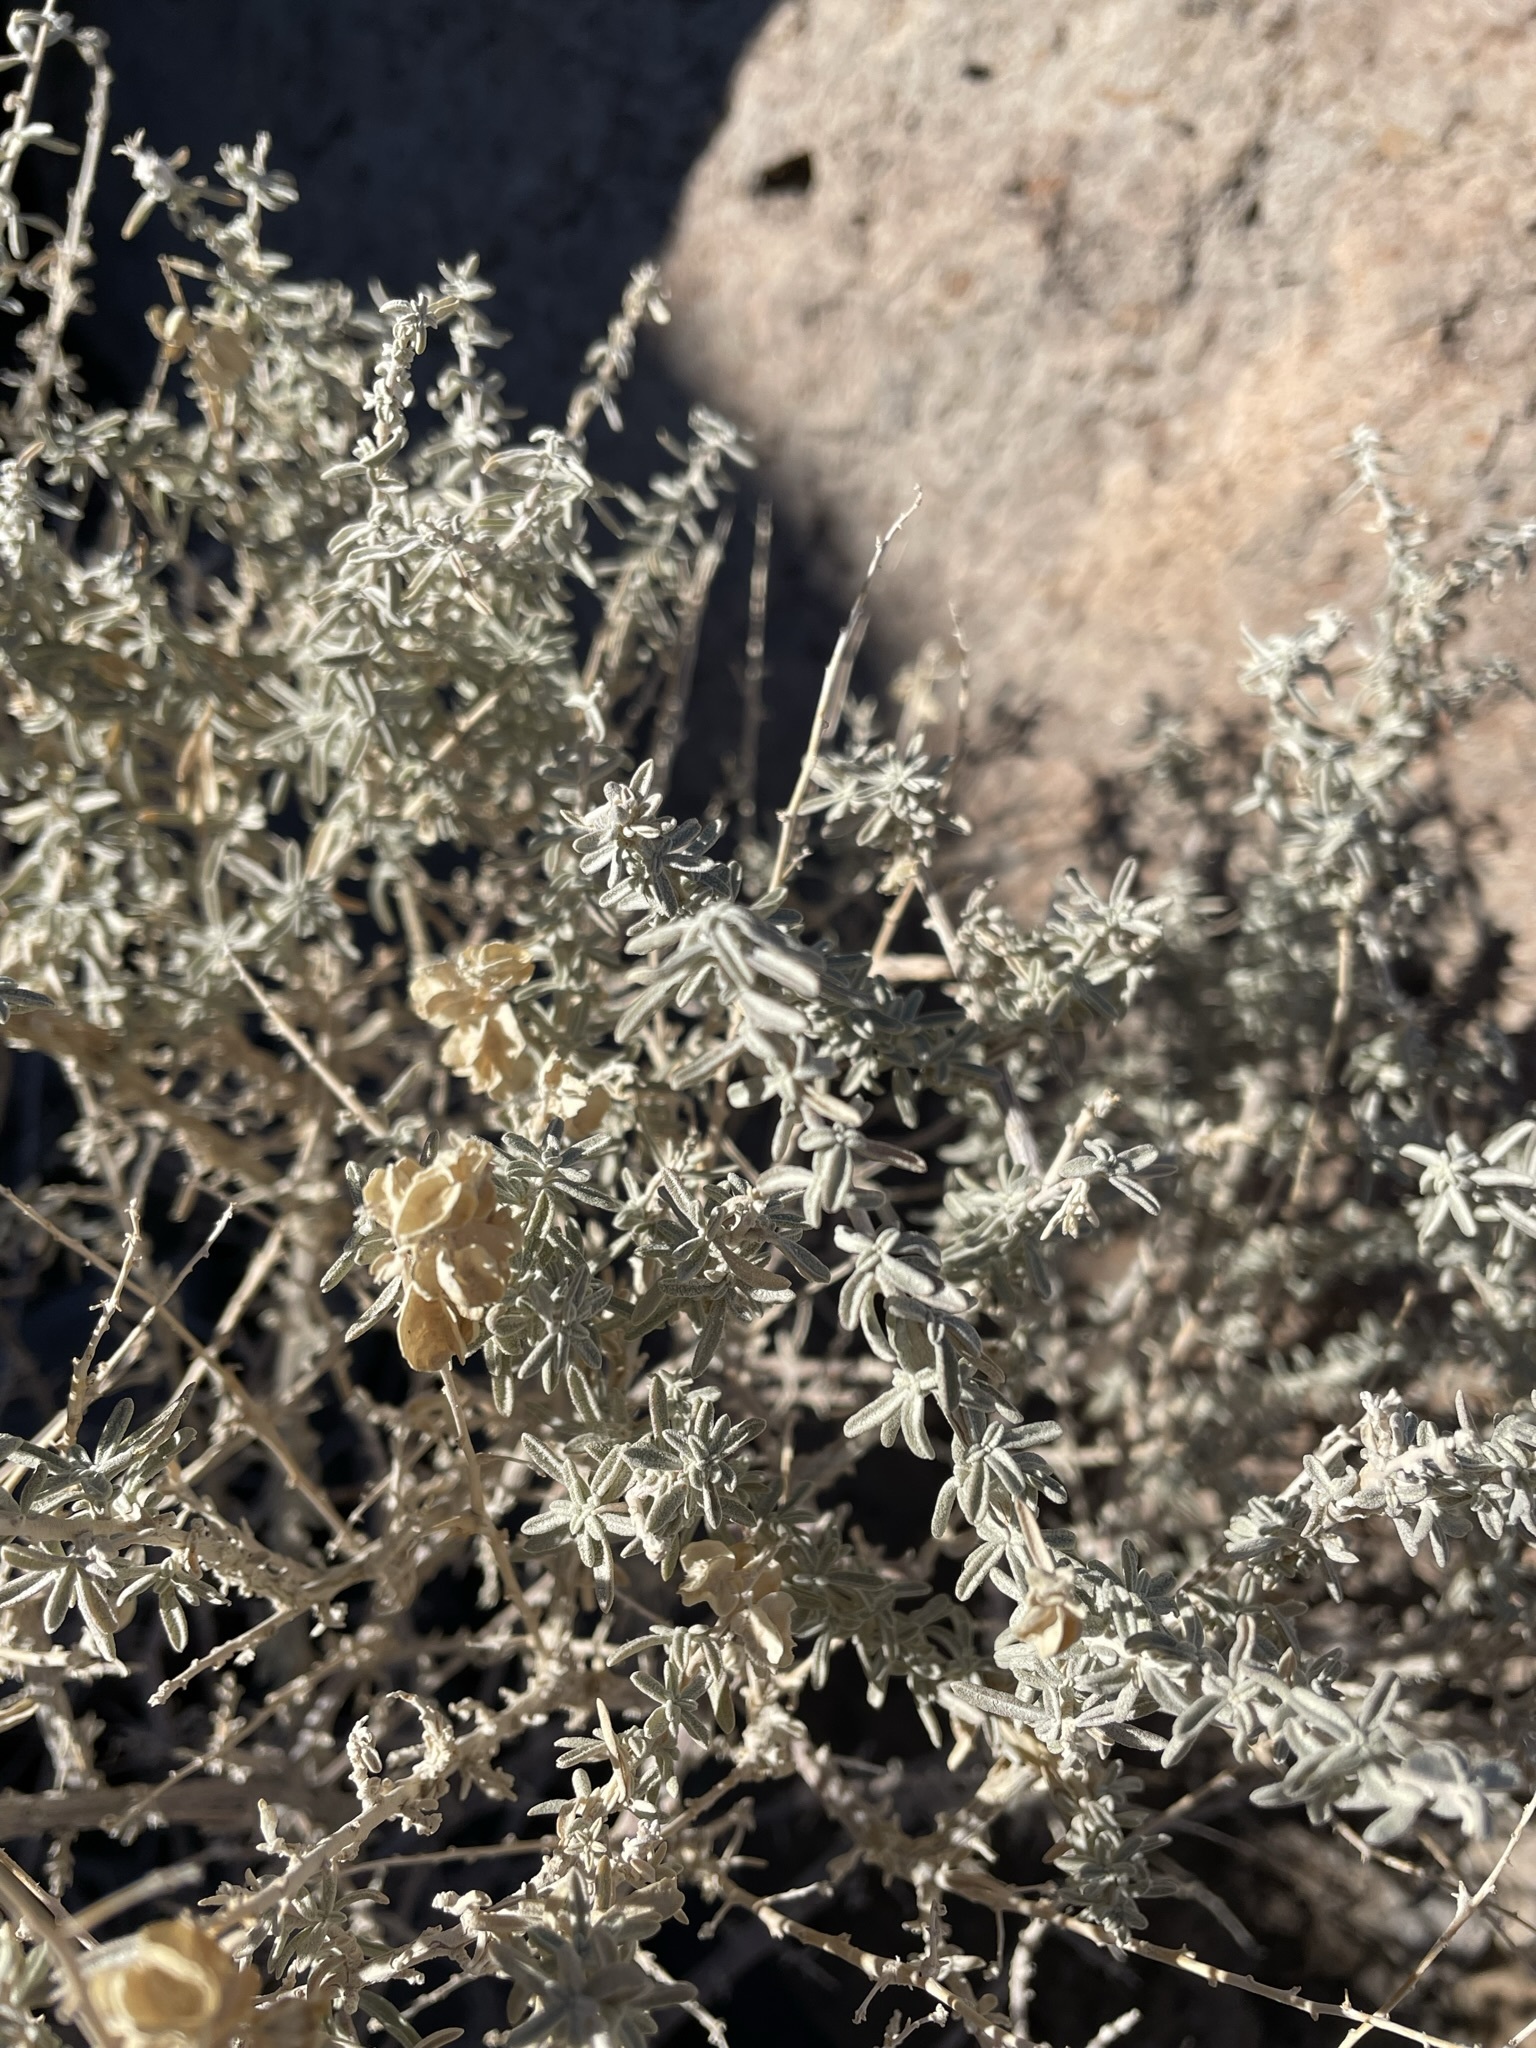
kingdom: Plantae
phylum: Tracheophyta
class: Magnoliopsida
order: Caryophyllales
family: Amaranthaceae
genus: Atriplex
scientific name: Atriplex canescens
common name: Four-wing saltbush
